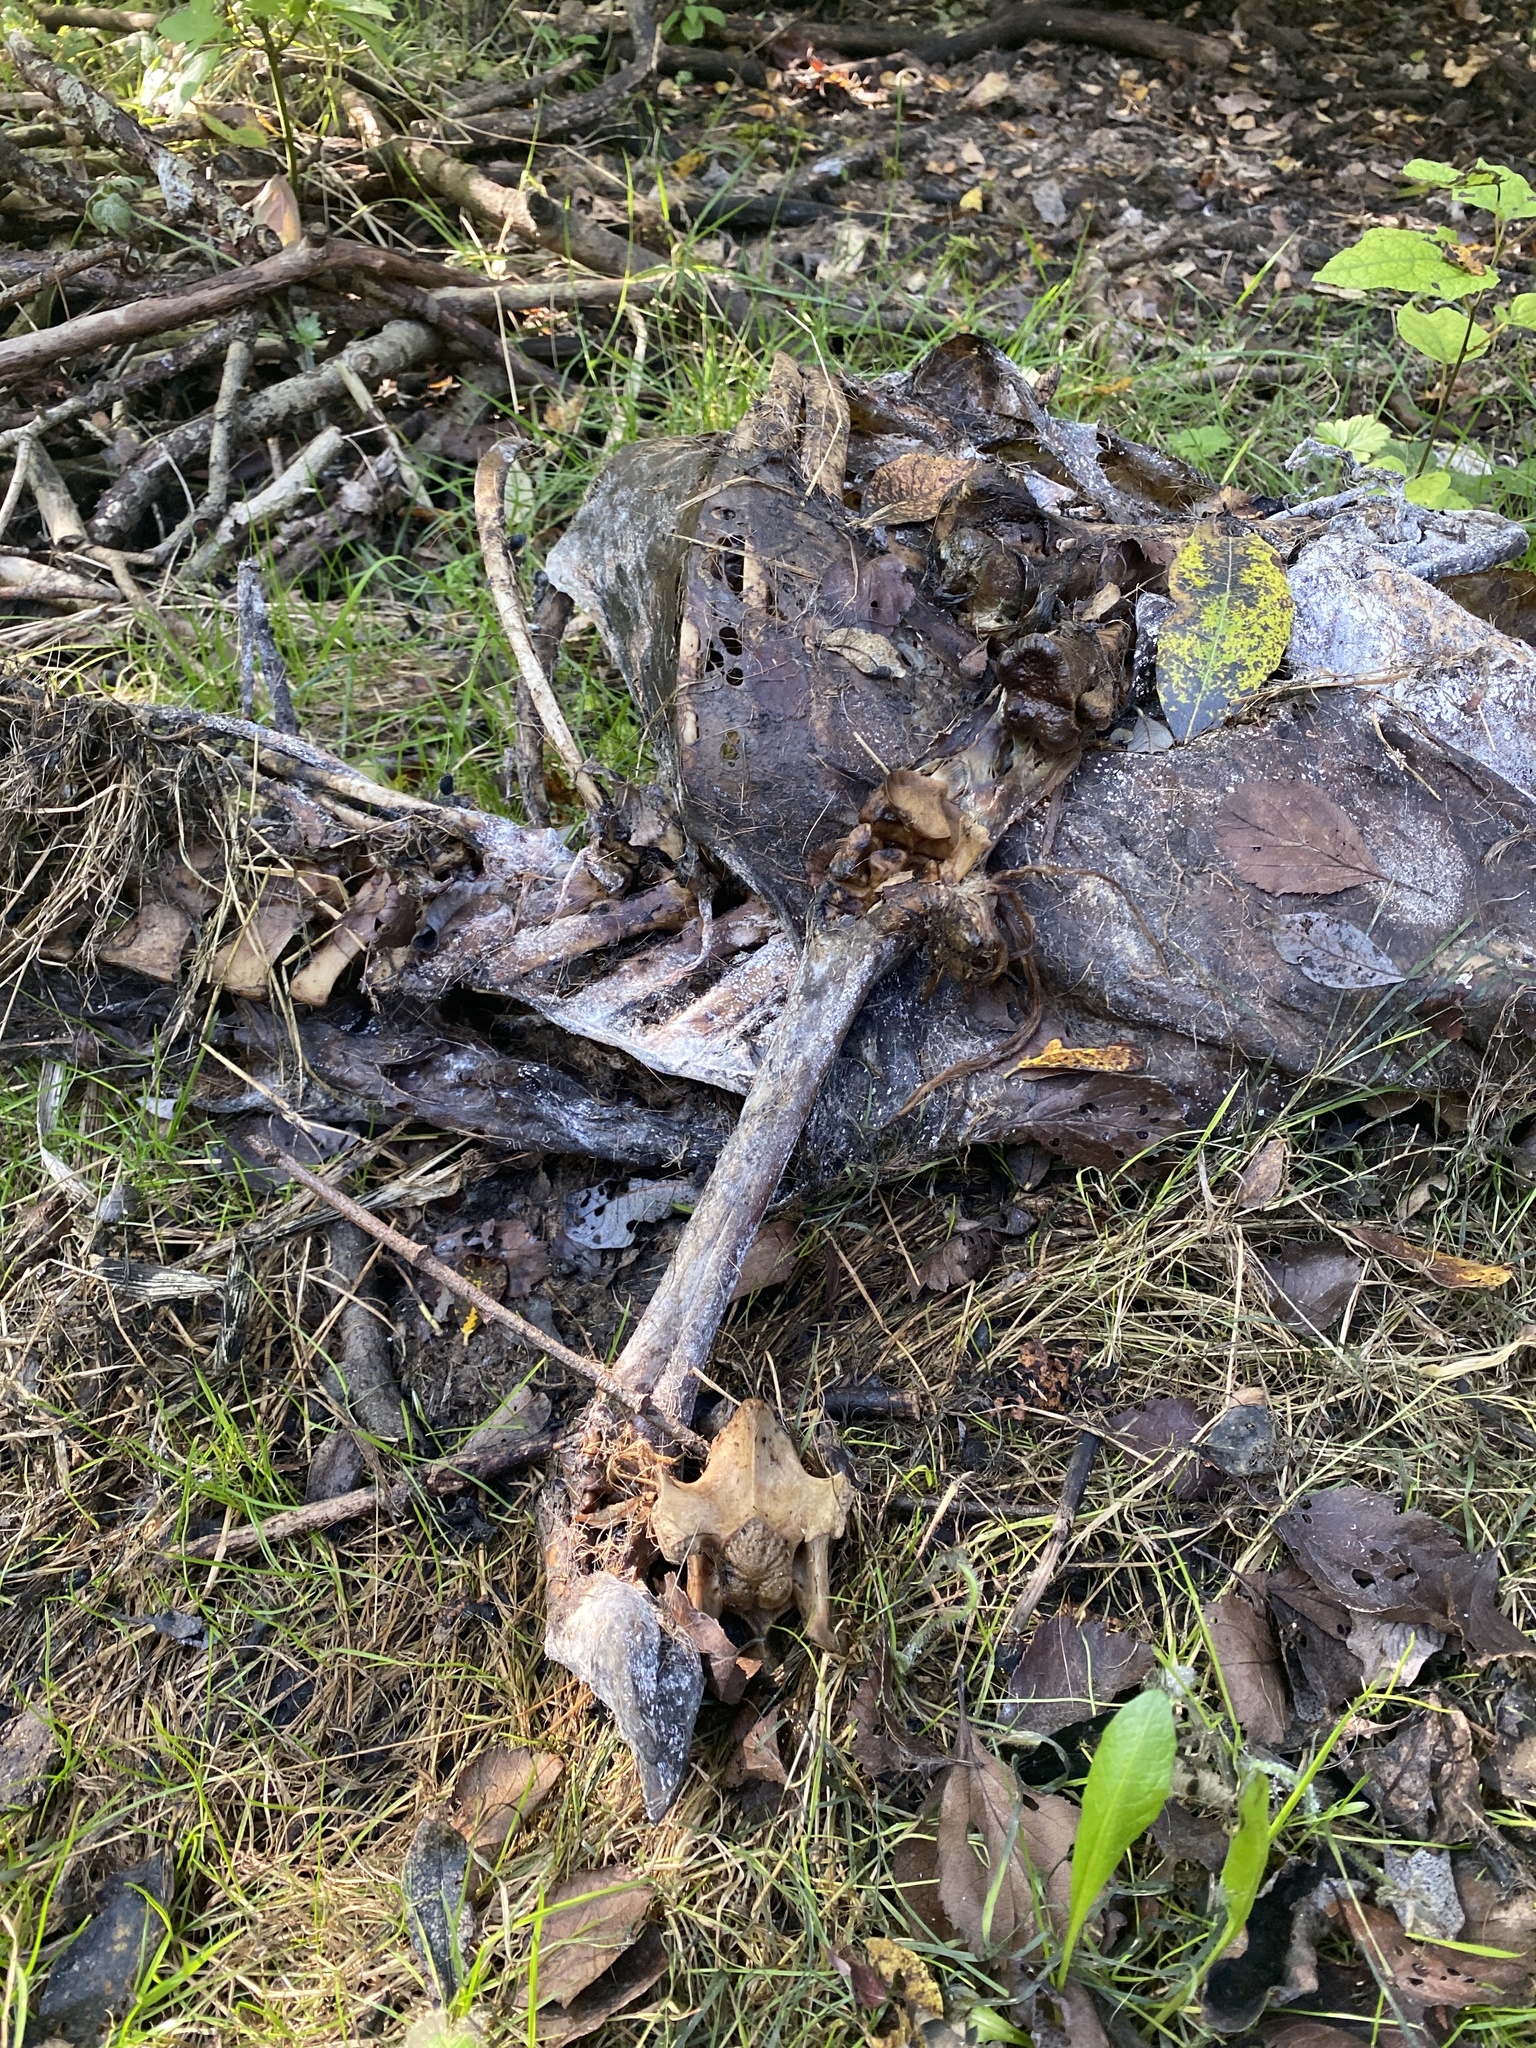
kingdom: Animalia
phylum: Chordata
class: Mammalia
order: Artiodactyla
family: Cervidae
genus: Odocoileus
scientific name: Odocoileus hemionus
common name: Mule deer
